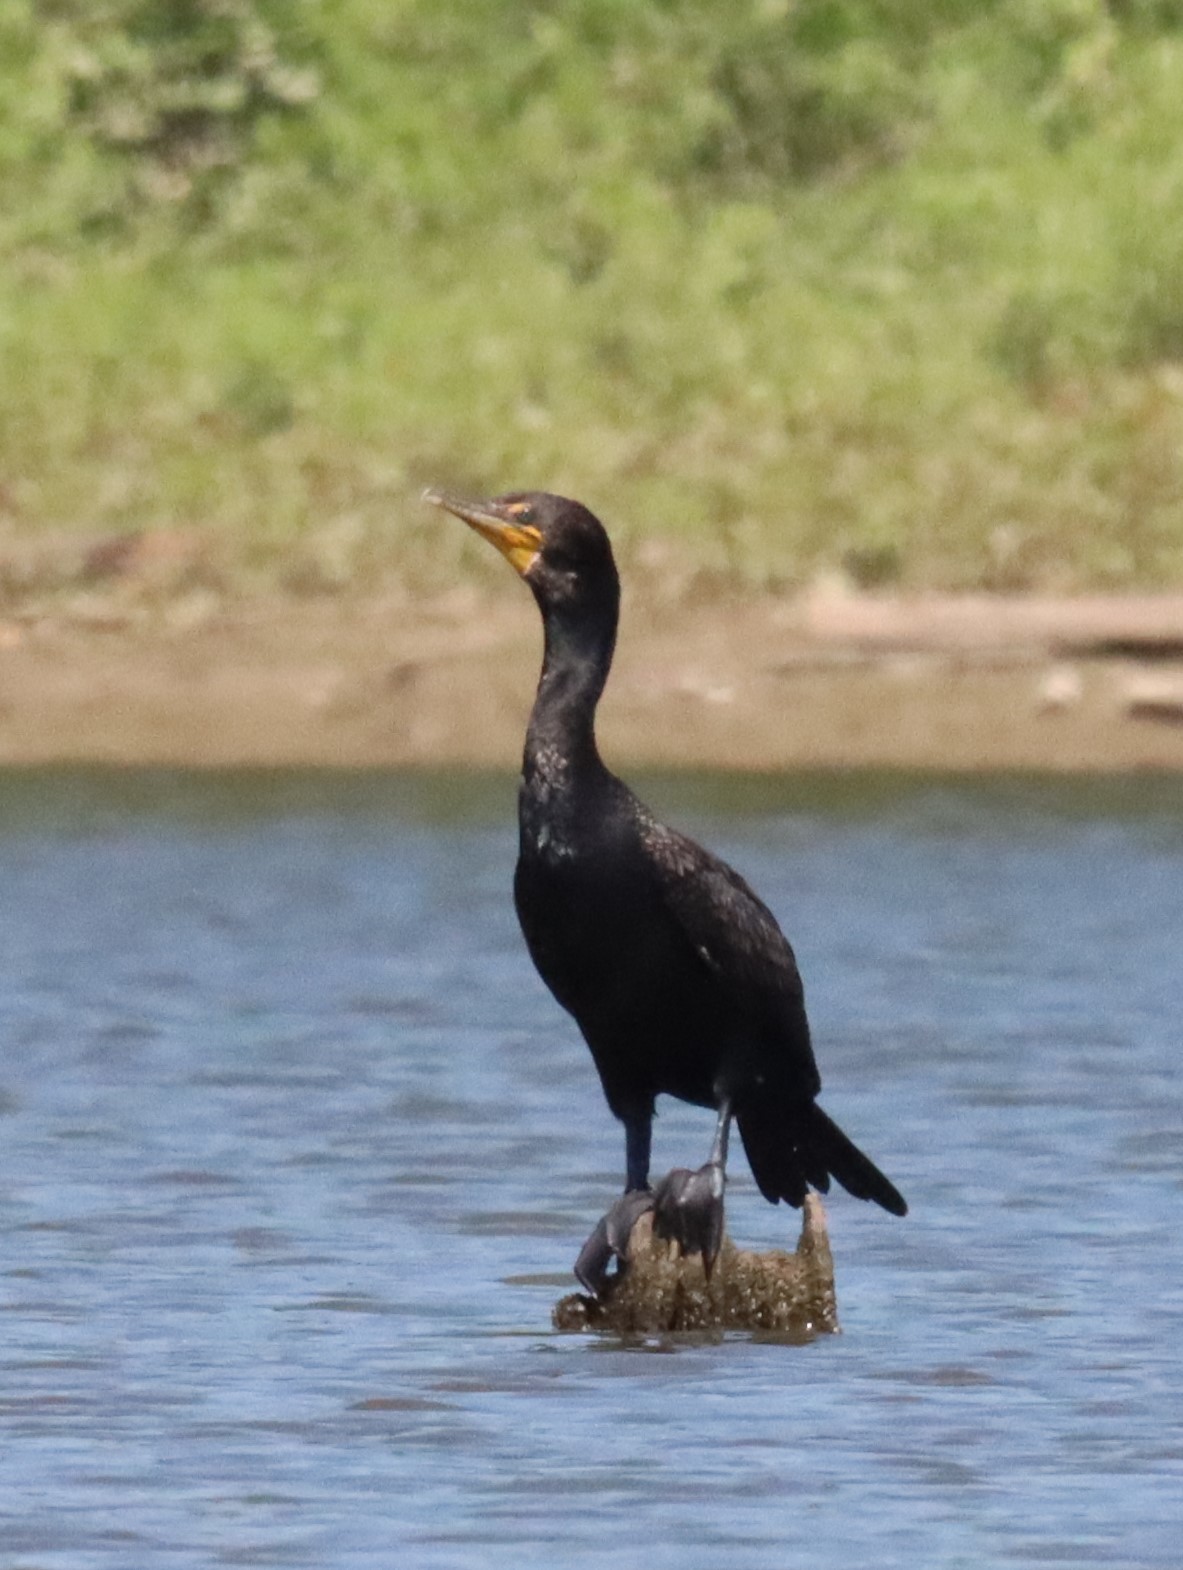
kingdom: Animalia
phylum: Chordata
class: Aves
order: Suliformes
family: Phalacrocoracidae
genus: Phalacrocorax
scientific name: Phalacrocorax auritus
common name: Double-crested cormorant
